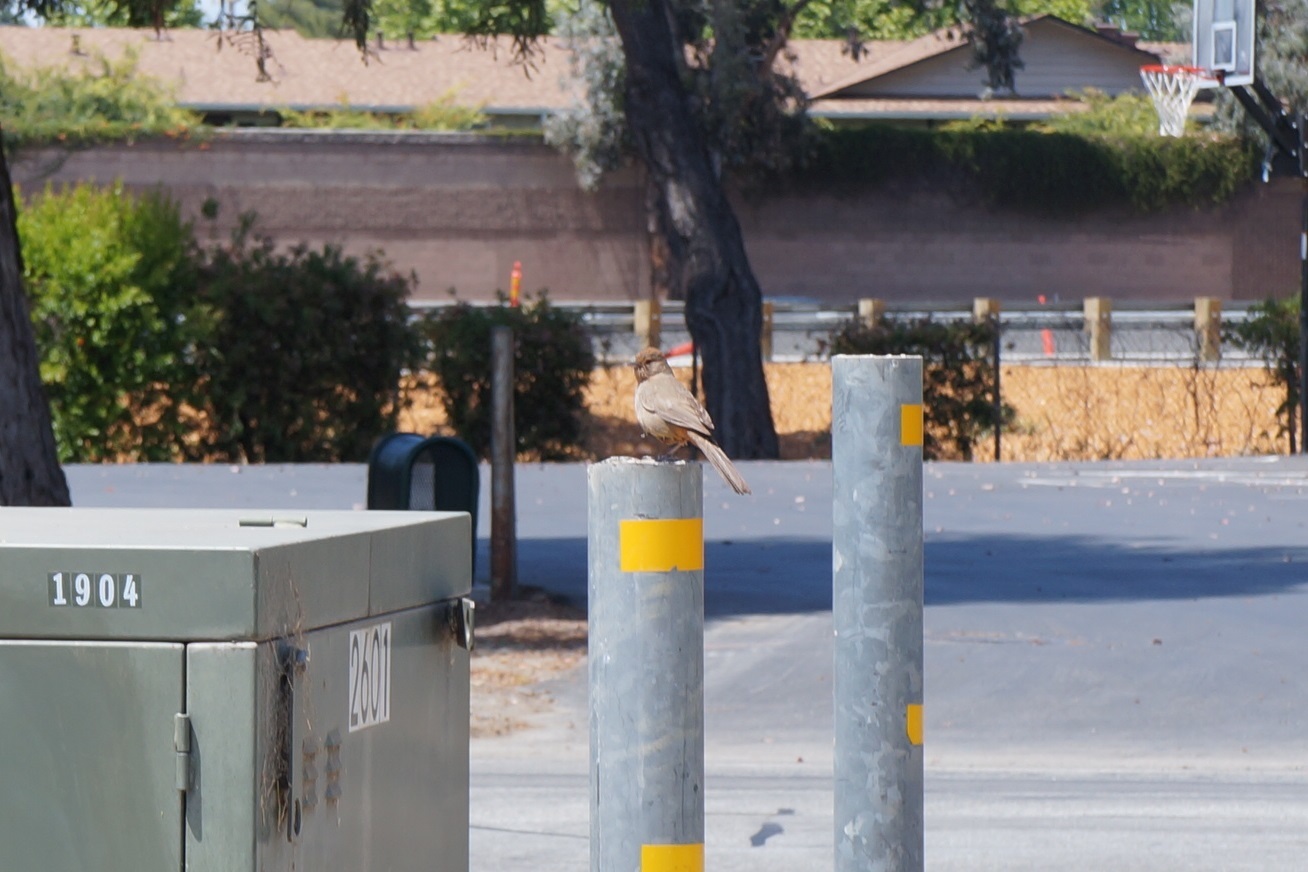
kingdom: Animalia
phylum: Chordata
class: Aves
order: Passeriformes
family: Passerellidae
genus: Melozone
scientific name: Melozone crissalis
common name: California towhee
